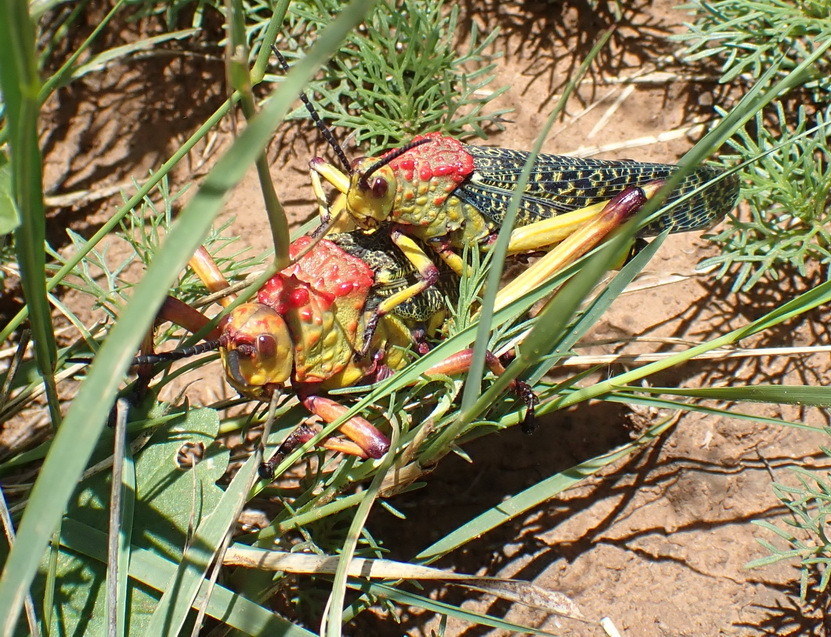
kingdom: Animalia
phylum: Arthropoda
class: Insecta
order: Orthoptera
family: Pyrgomorphidae
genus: Phymateus
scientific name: Phymateus morbillosus
